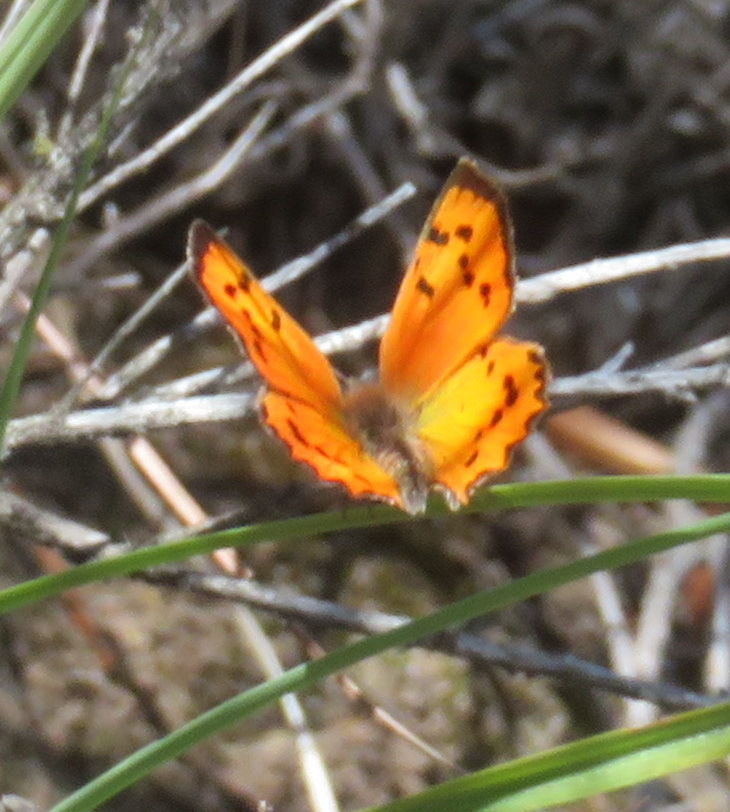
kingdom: Animalia
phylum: Arthropoda
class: Insecta
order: Lepidoptera
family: Lycaenidae
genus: Zeritis
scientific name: Zeritis chrysaor
